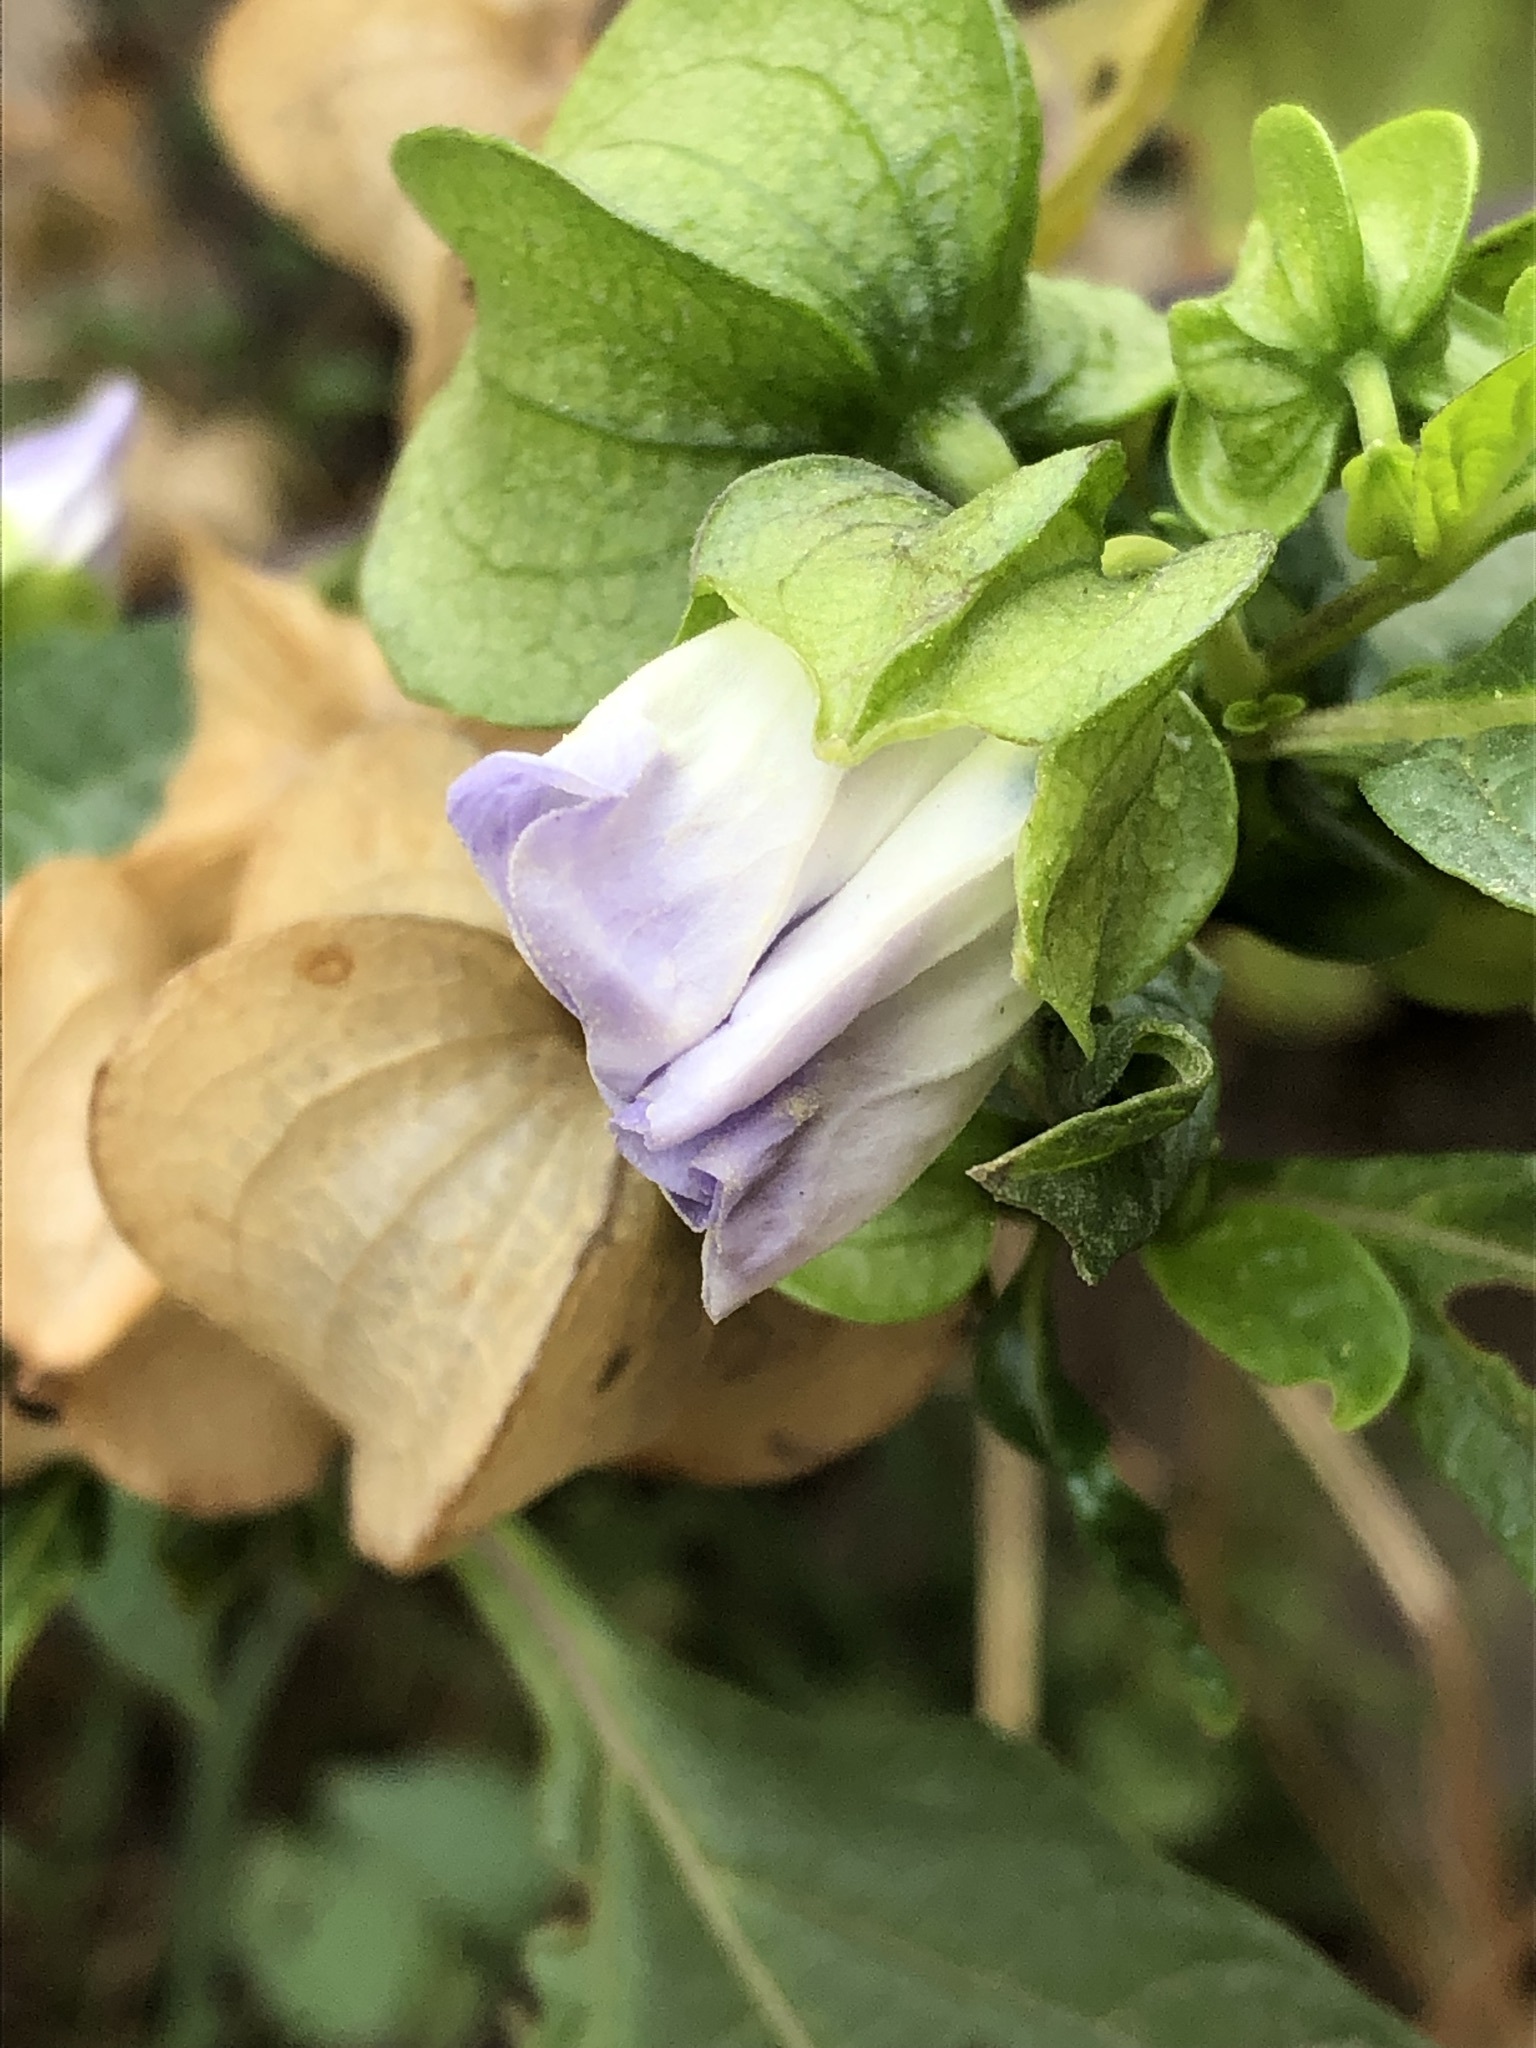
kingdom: Plantae
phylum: Tracheophyta
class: Magnoliopsida
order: Solanales
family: Solanaceae
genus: Nicandra
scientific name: Nicandra physalodes
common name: Apple-of-peru
